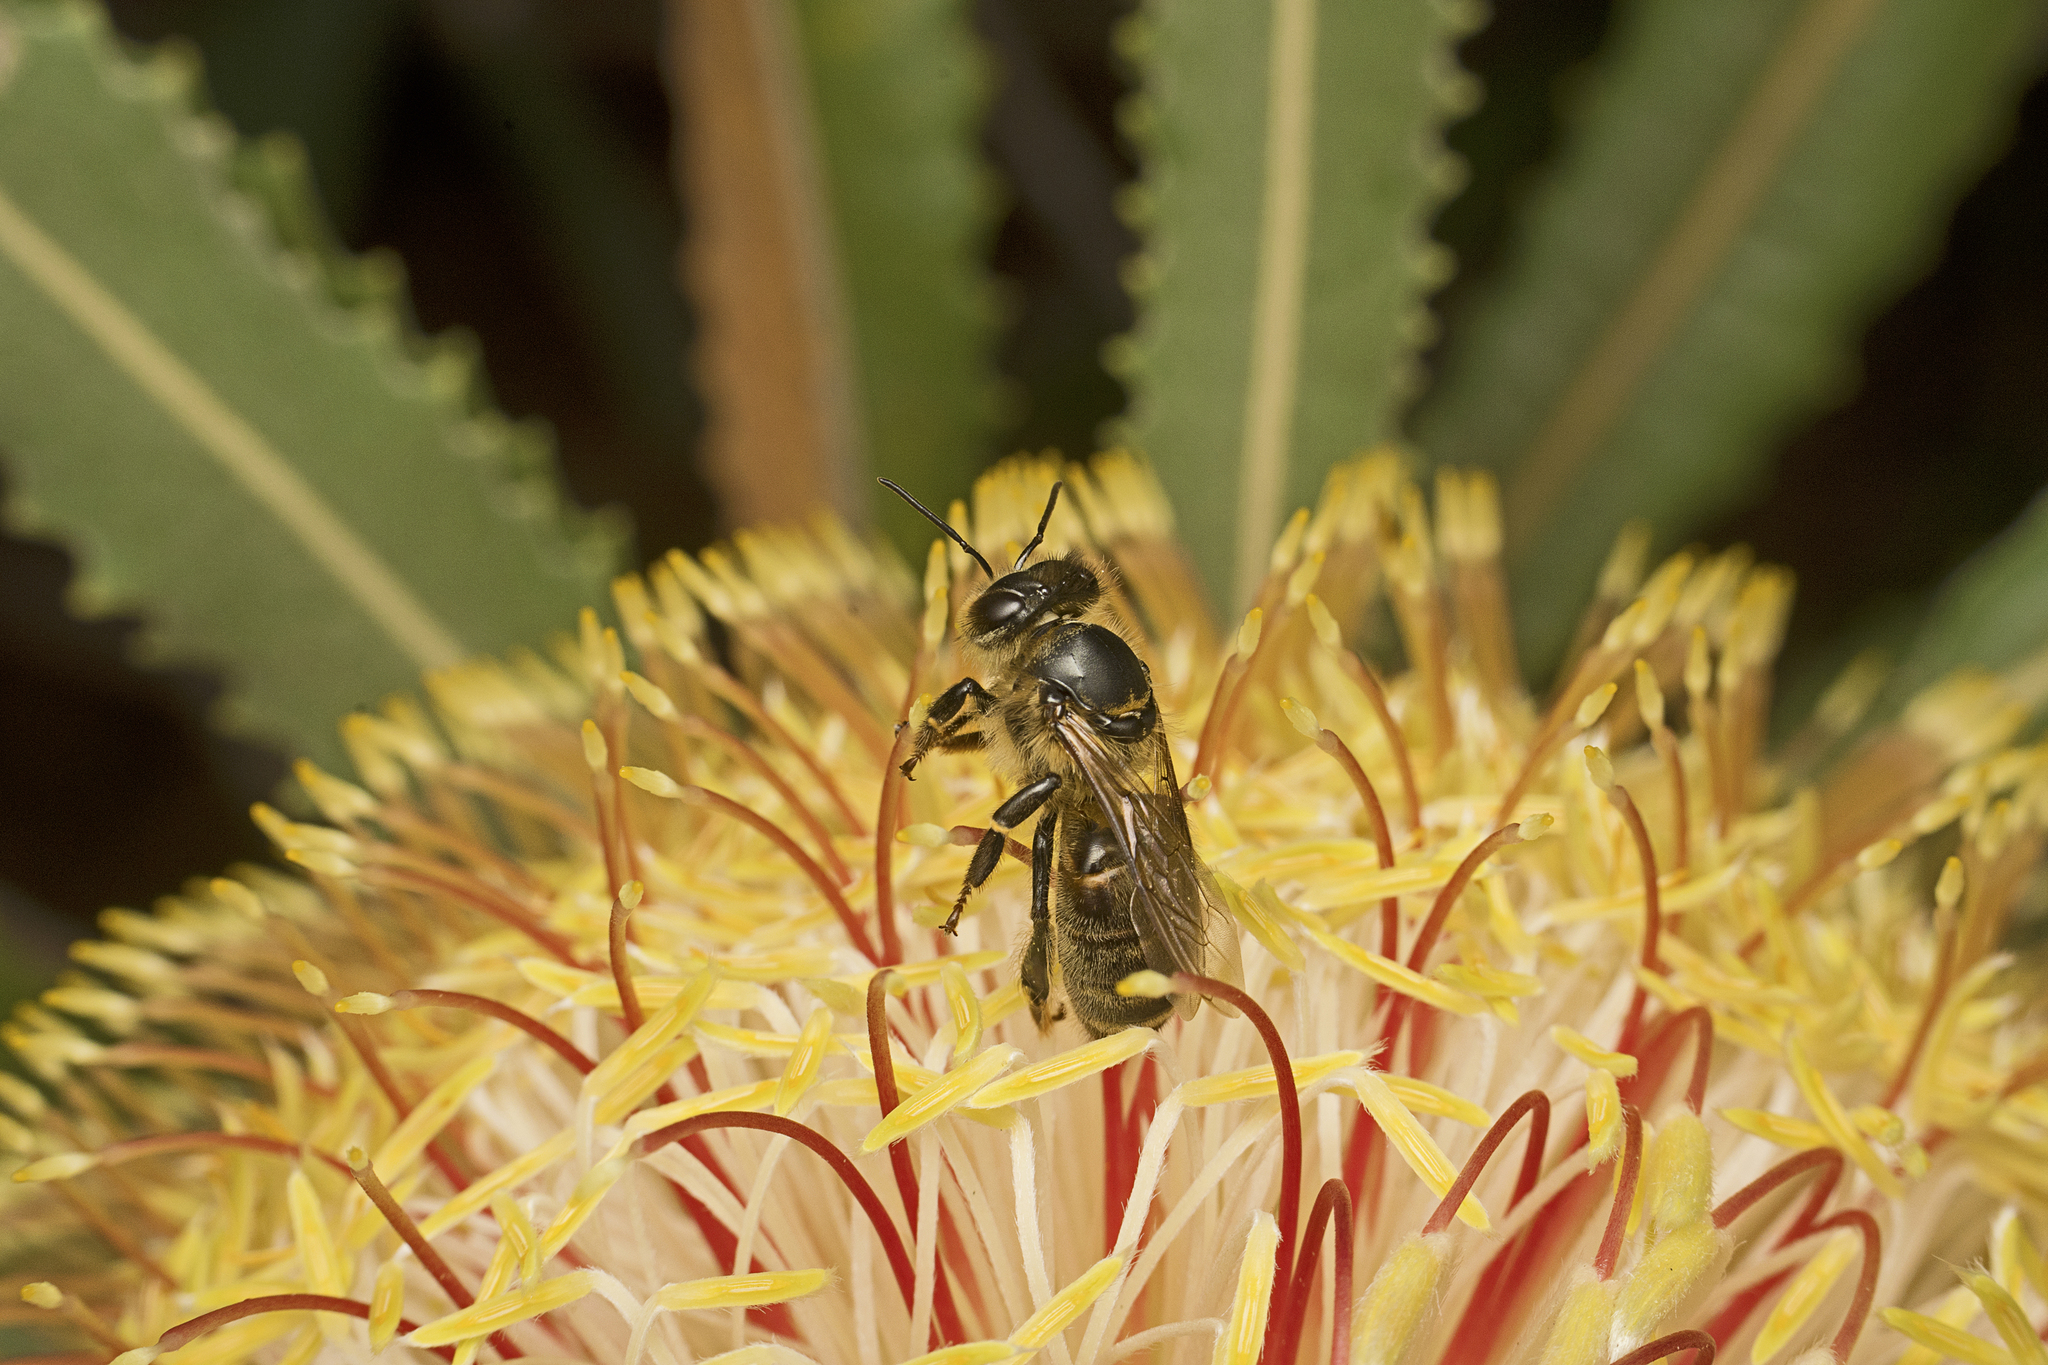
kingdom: Animalia
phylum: Arthropoda
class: Insecta
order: Hymenoptera
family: Apidae
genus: Apis
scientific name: Apis mellifera
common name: Honey bee
